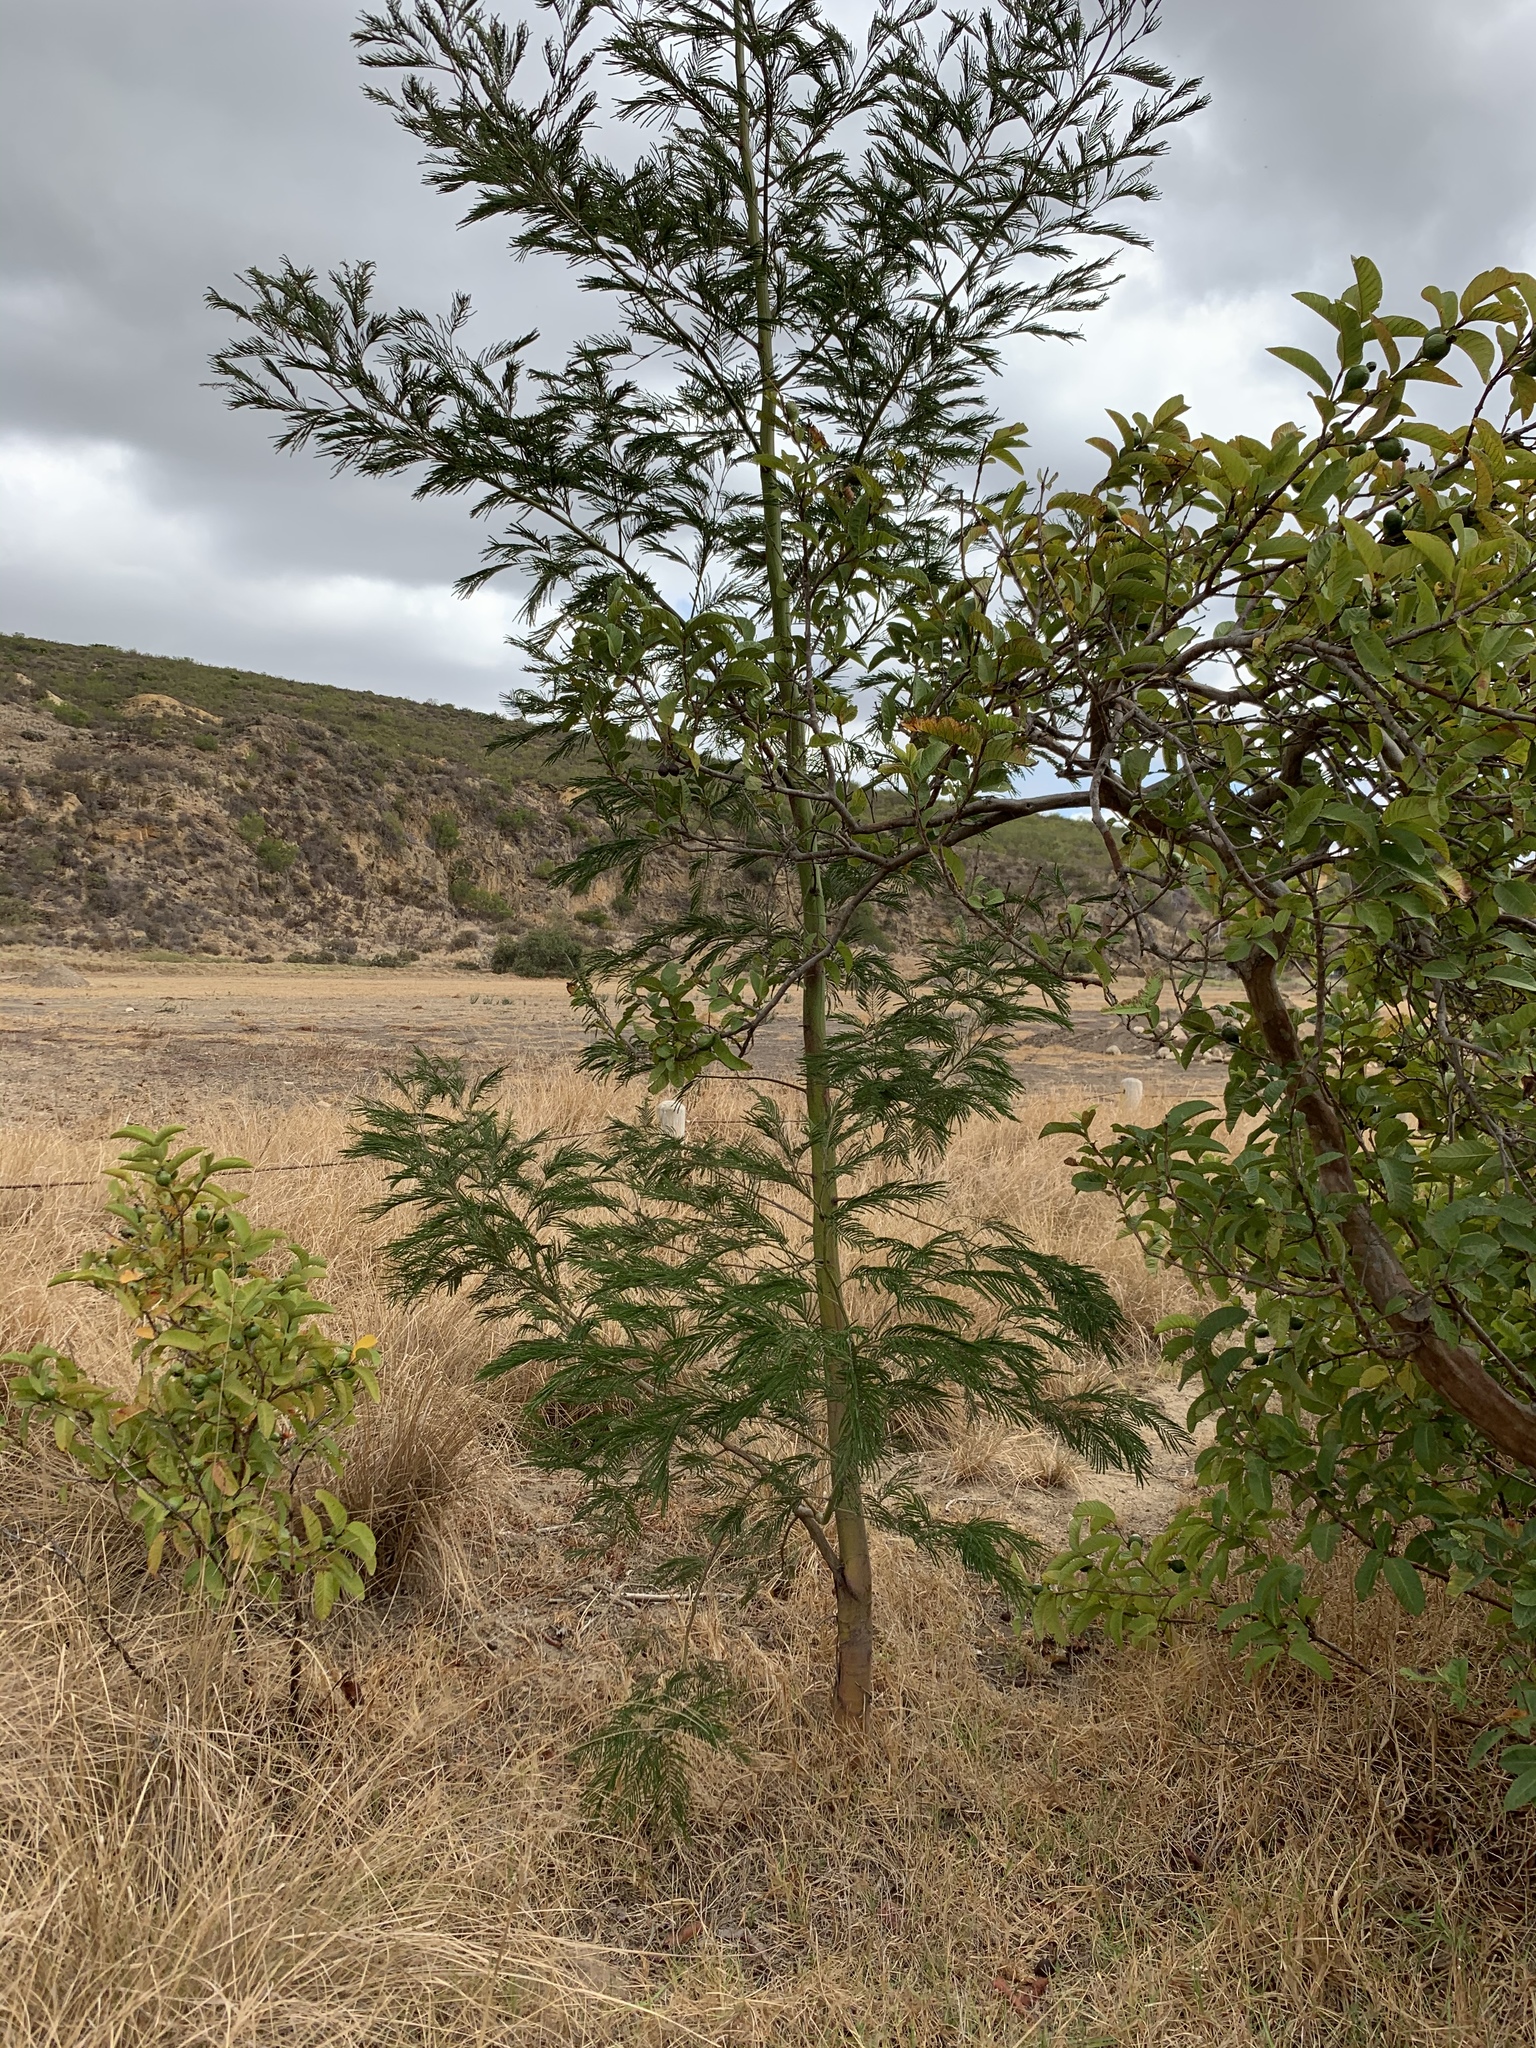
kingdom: Plantae
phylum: Tracheophyta
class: Magnoliopsida
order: Fabales
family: Fabaceae
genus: Acacia
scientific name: Acacia mearnsii
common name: Black wattle
